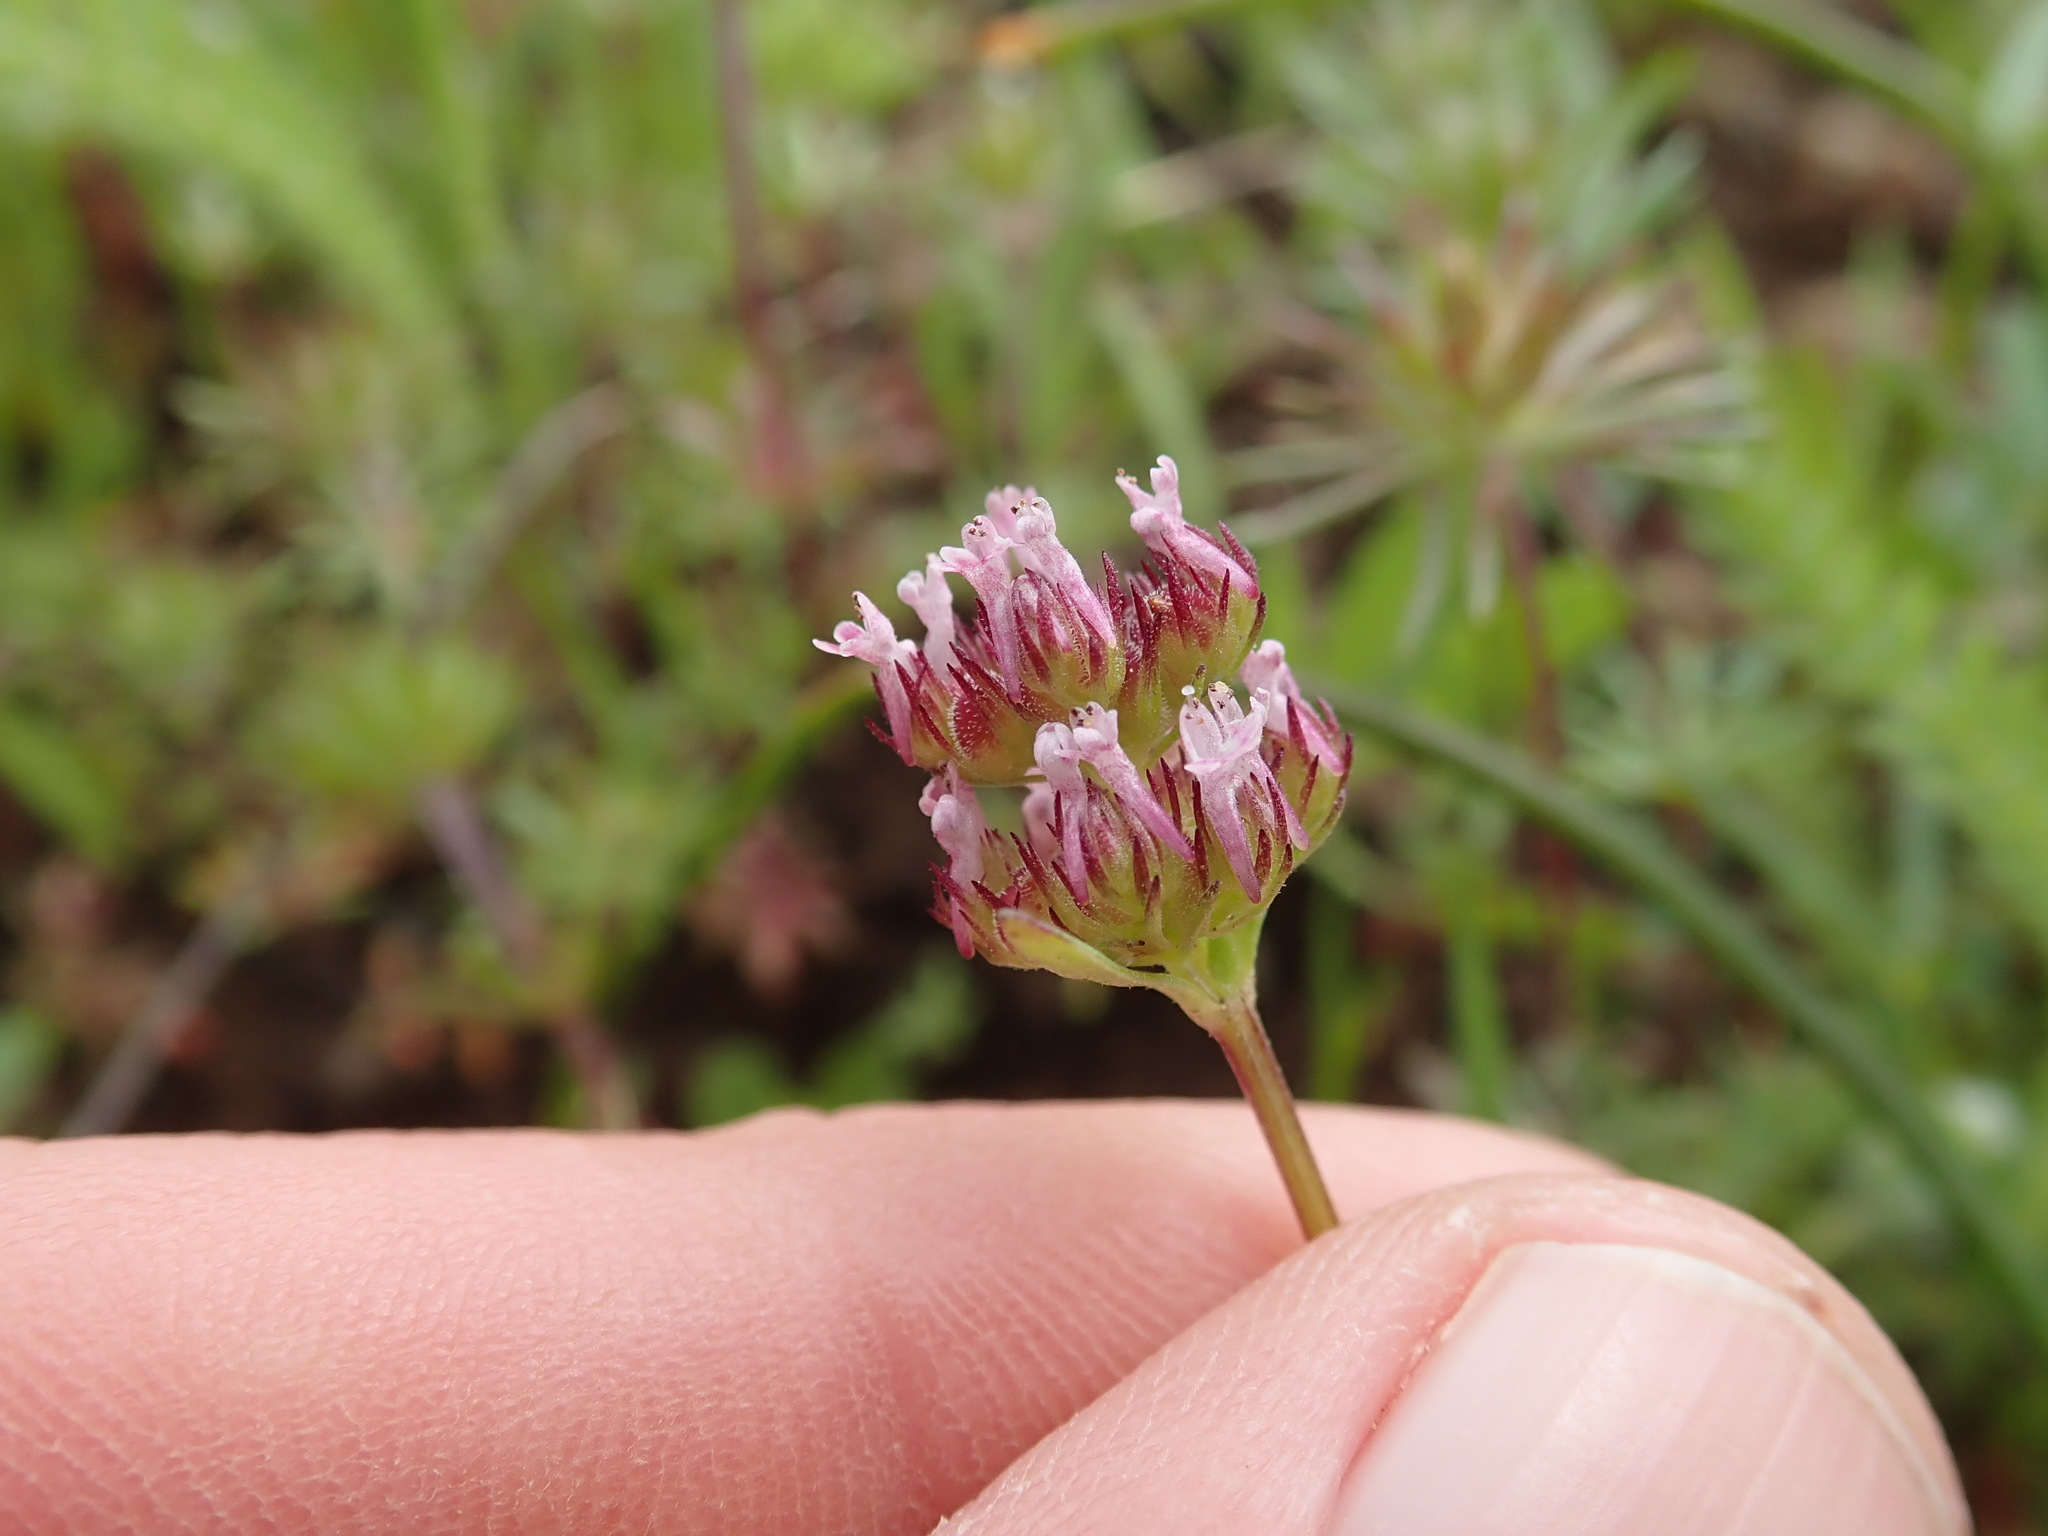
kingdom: Plantae
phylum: Tracheophyta
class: Magnoliopsida
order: Dipsacales
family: Caprifoliaceae
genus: Plectritis
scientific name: Plectritis ciliosa
